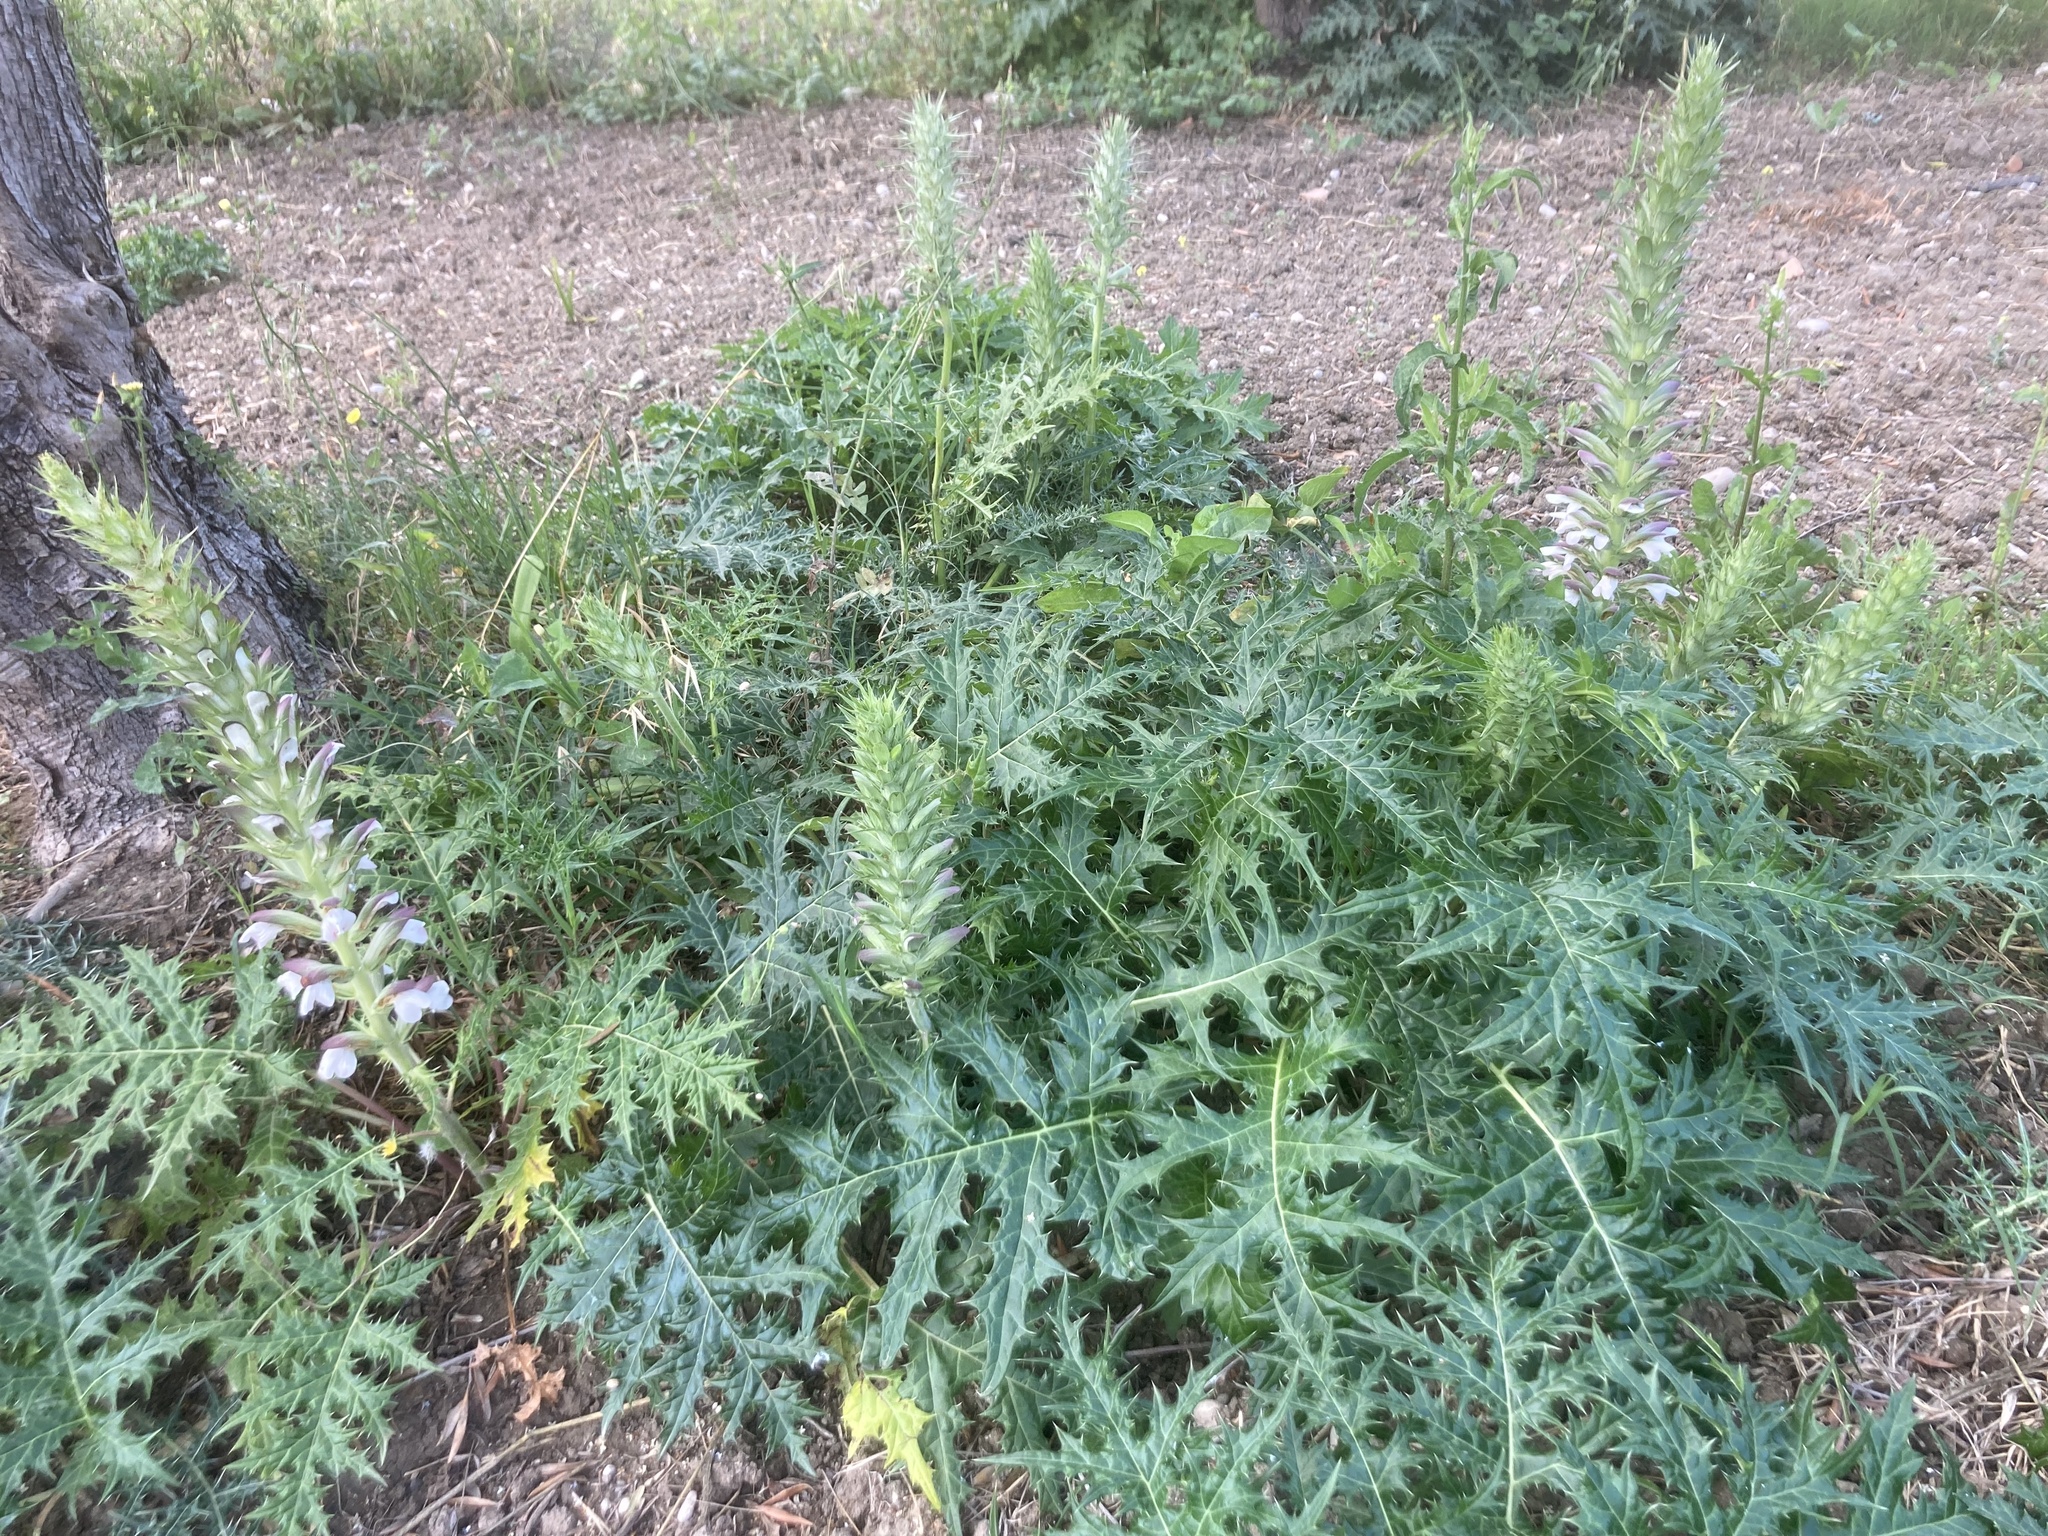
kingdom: Plantae
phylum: Tracheophyta
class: Magnoliopsida
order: Lamiales
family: Acanthaceae
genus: Acanthus
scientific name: Acanthus spinosus
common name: Spiny bear's-breech
